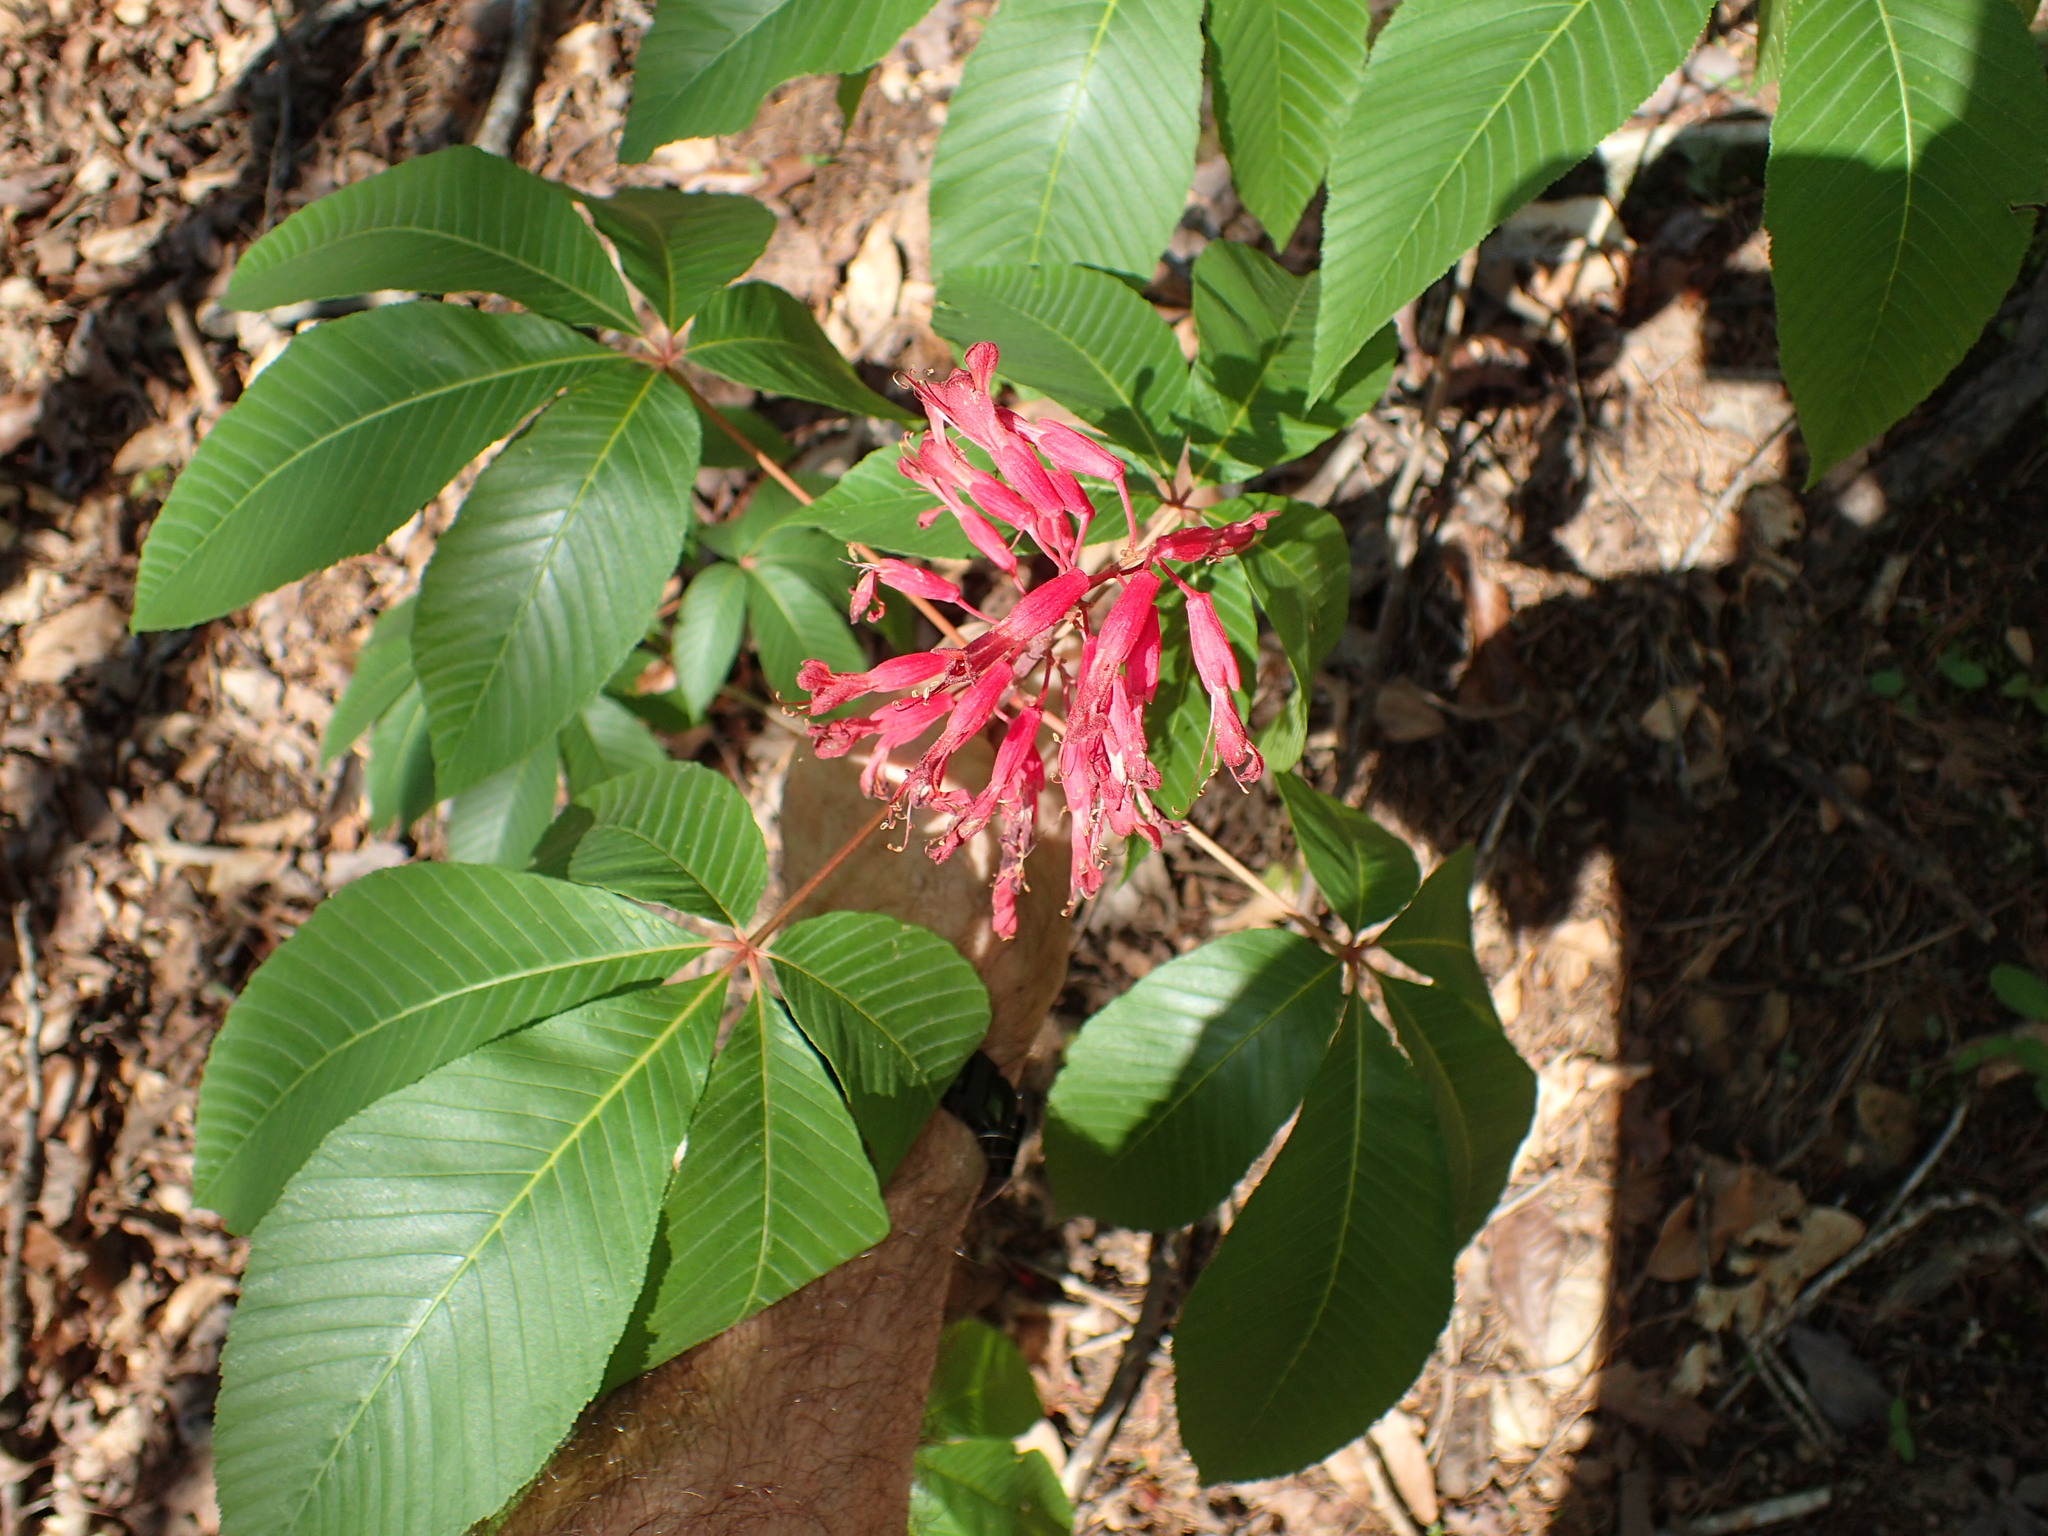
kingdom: Plantae
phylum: Tracheophyta
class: Magnoliopsida
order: Sapindales
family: Sapindaceae
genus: Aesculus
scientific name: Aesculus pavia
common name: Red buckeye
